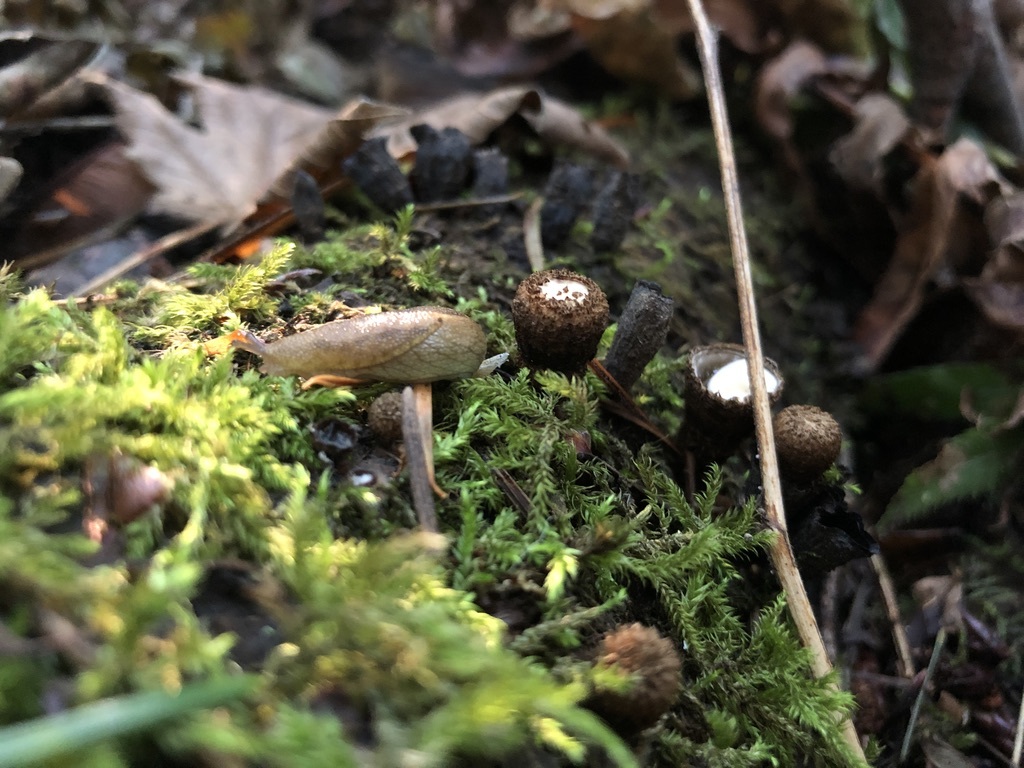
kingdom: Animalia
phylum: Mollusca
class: Gastropoda
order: Stylommatophora
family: Ariolimacidae
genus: Prophysaon
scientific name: Prophysaon foliolatum
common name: Yellow-bordered taildropper
